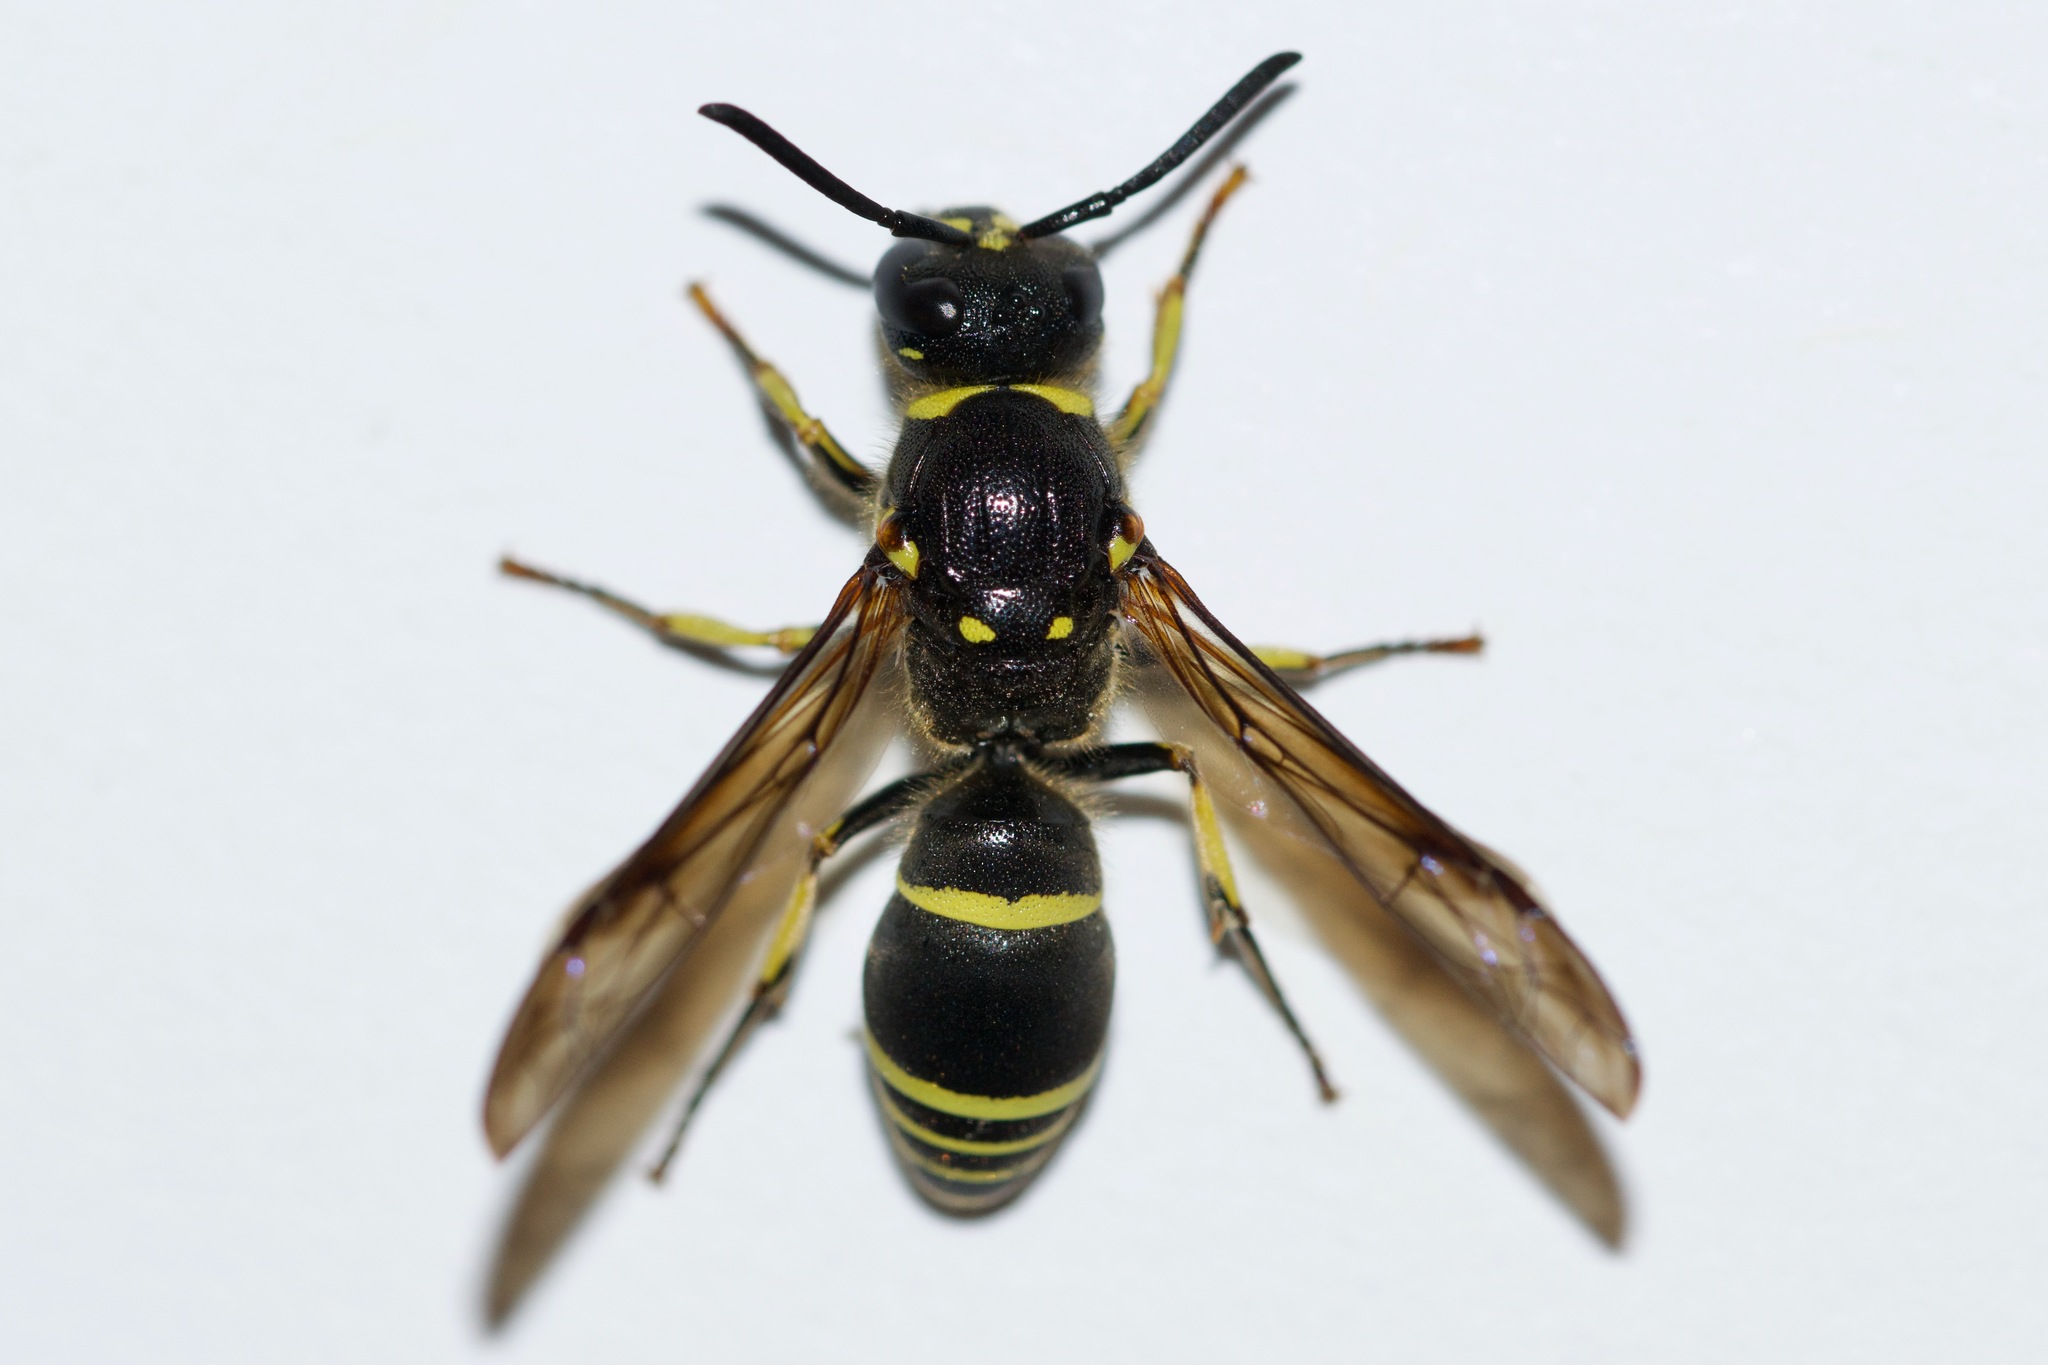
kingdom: Animalia
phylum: Arthropoda
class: Insecta
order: Hymenoptera
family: Vespidae
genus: Ancistrocerus
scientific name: Ancistrocerus
